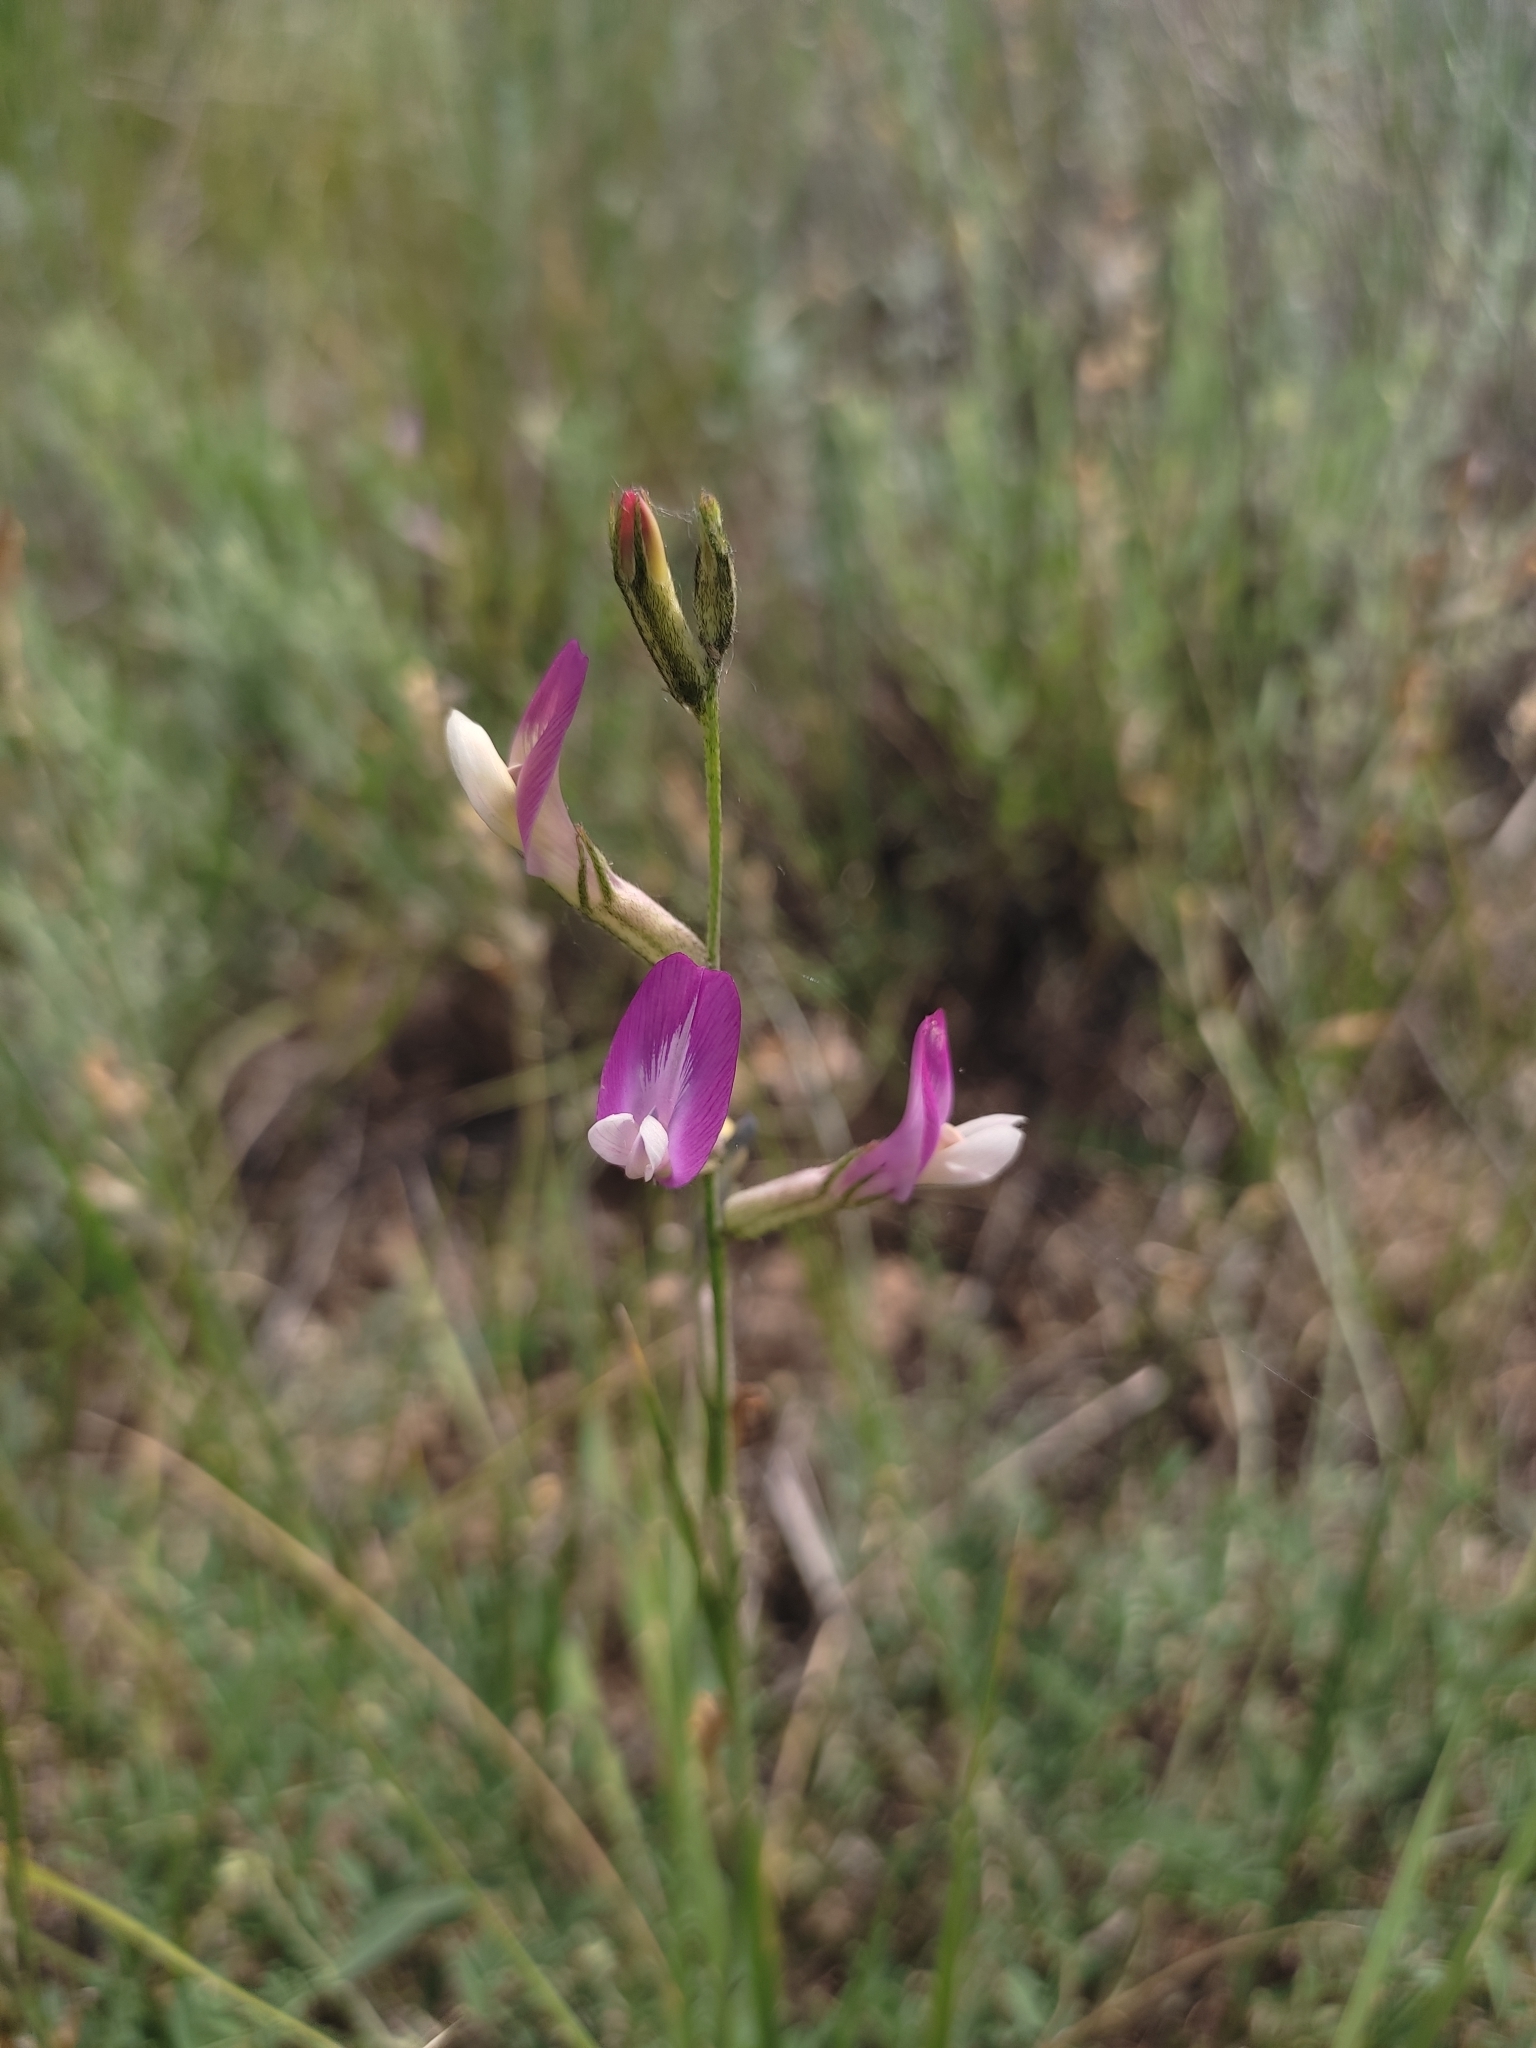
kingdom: Plantae
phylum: Tracheophyta
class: Magnoliopsida
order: Fabales
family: Fabaceae
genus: Astragalus
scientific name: Astragalus macropus
